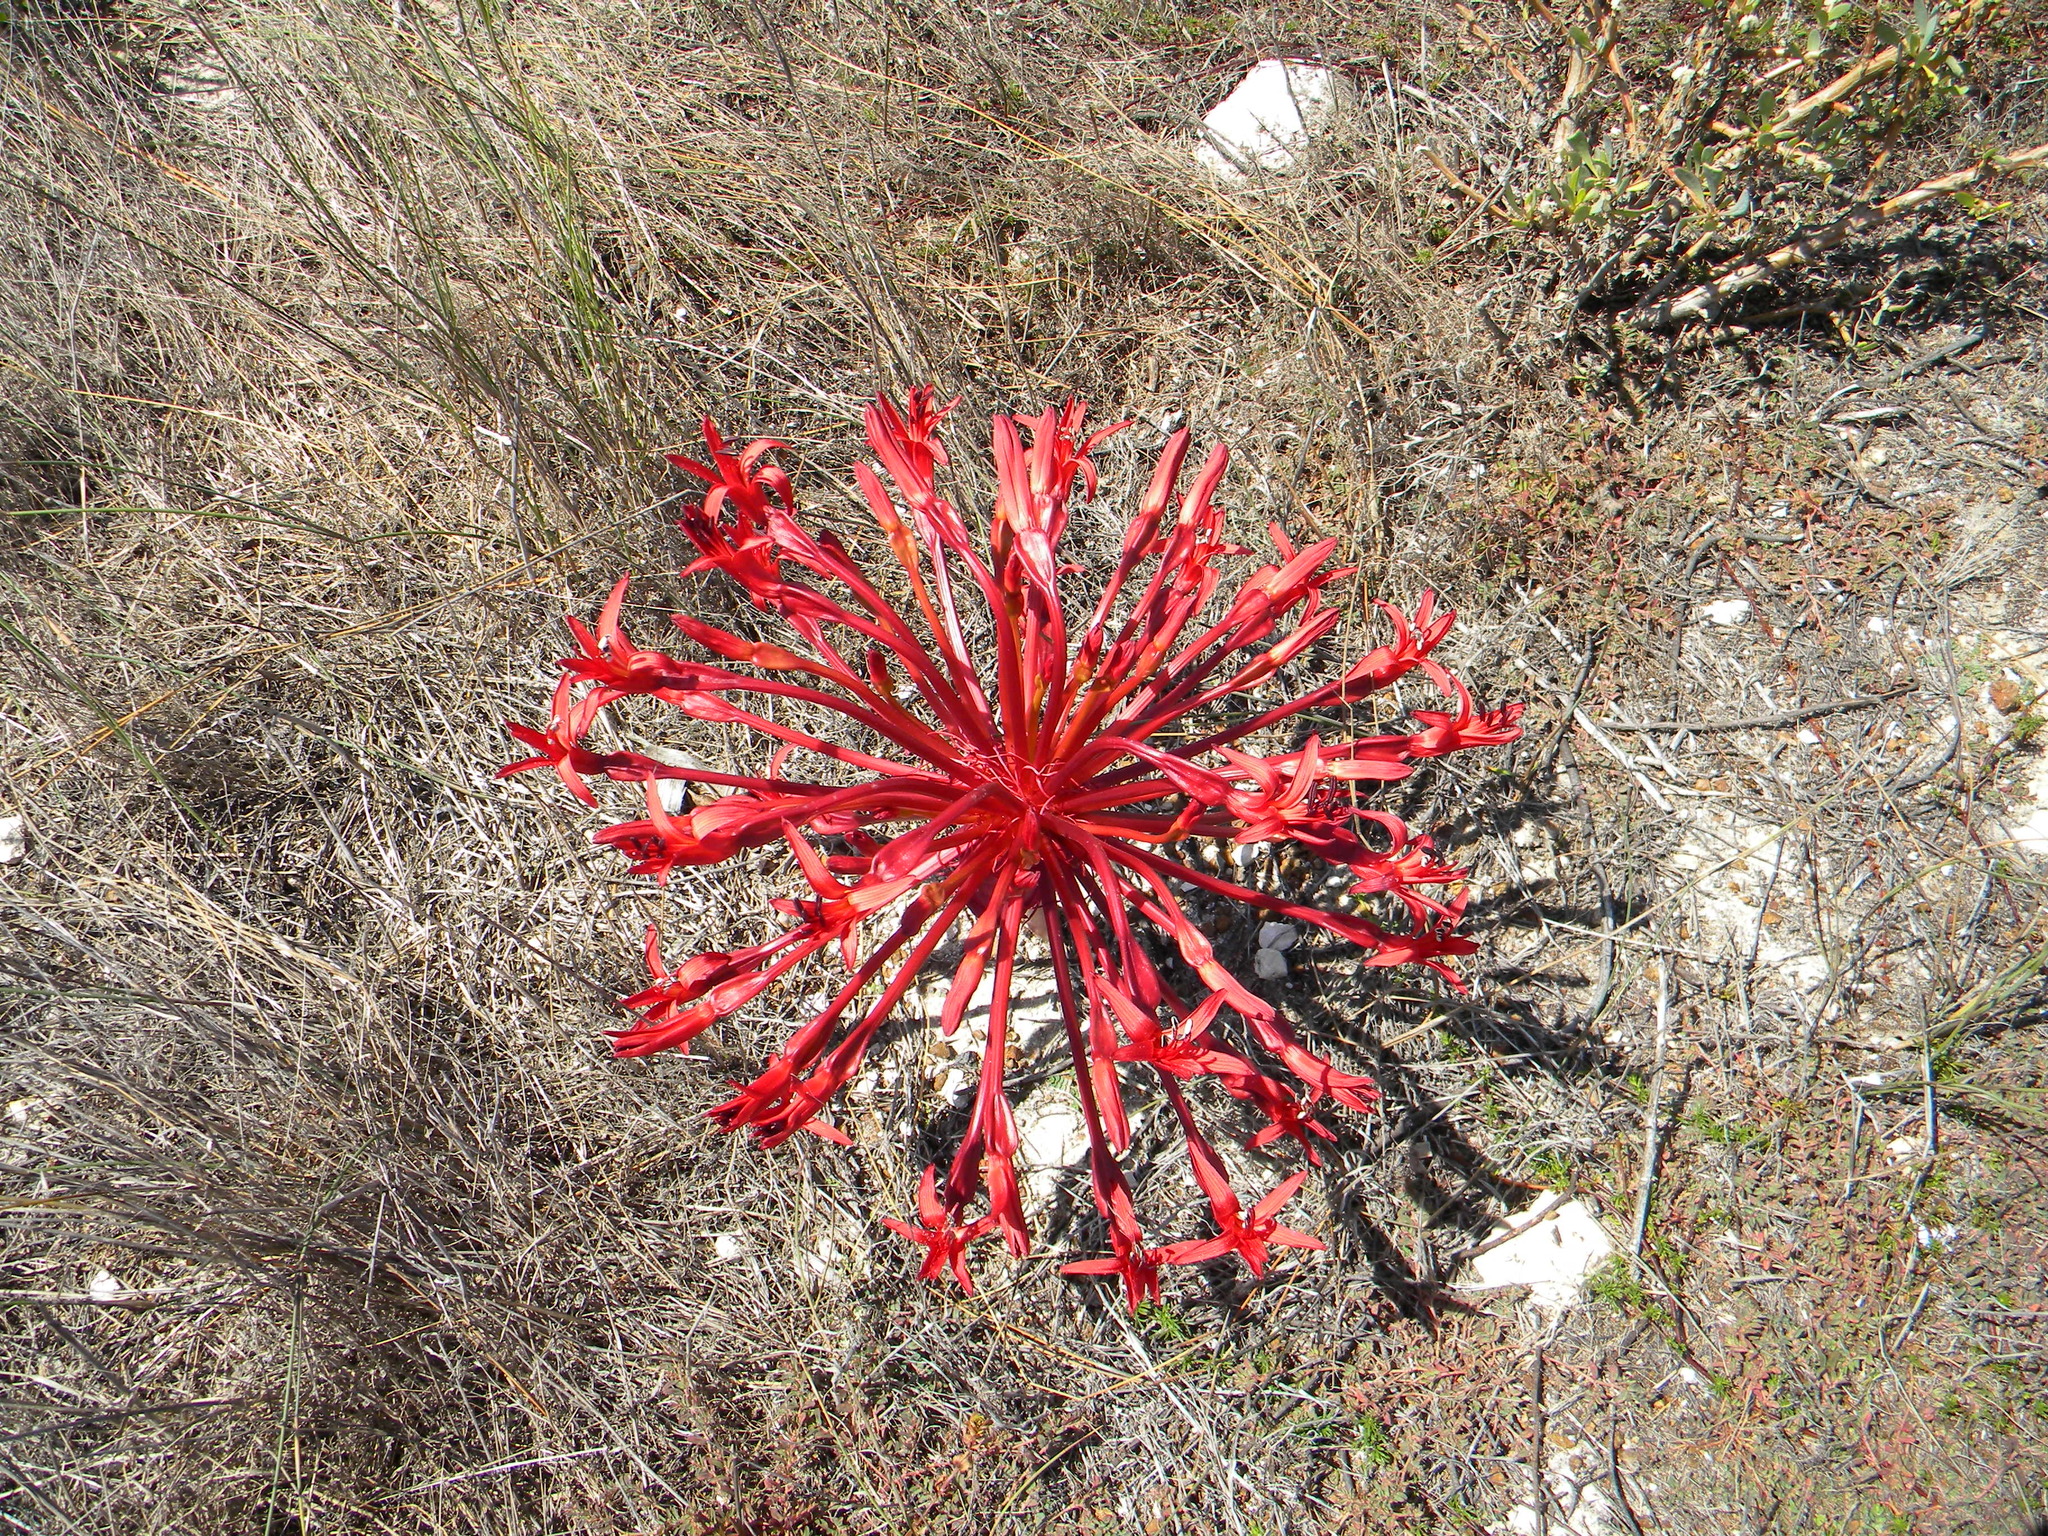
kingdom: Plantae
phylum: Tracheophyta
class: Liliopsida
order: Asparagales
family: Amaryllidaceae
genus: Brunsvigia
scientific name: Brunsvigia orientalis
